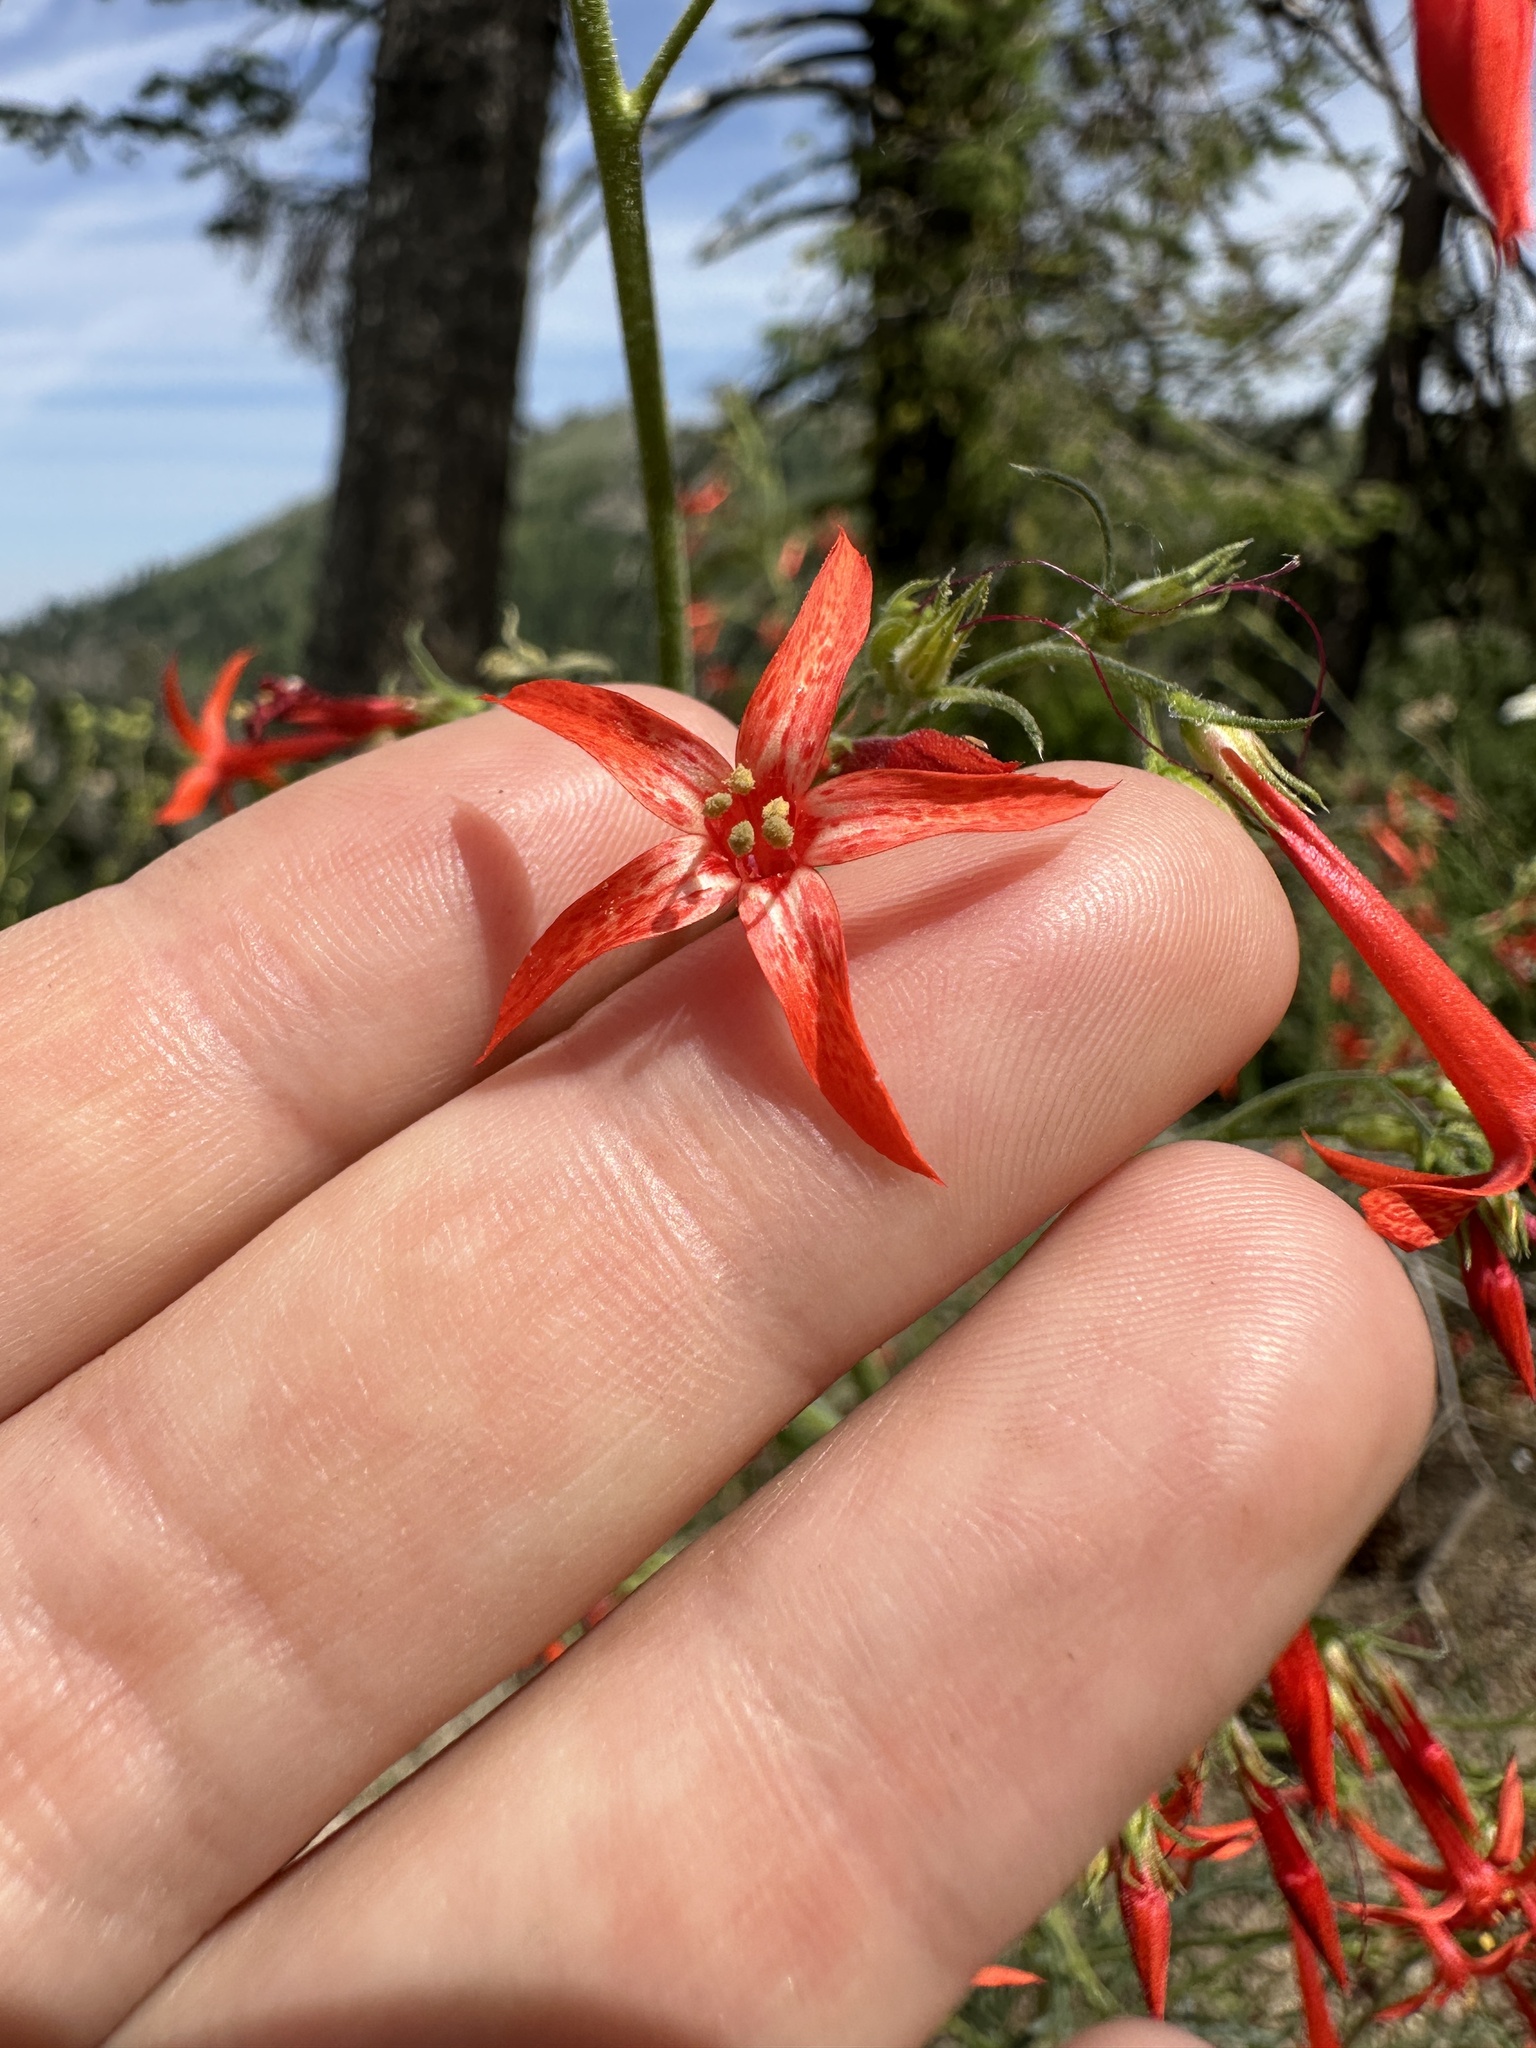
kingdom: Plantae
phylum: Tracheophyta
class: Magnoliopsida
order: Ericales
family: Polemoniaceae
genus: Ipomopsis
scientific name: Ipomopsis aggregata
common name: Scarlet gilia
